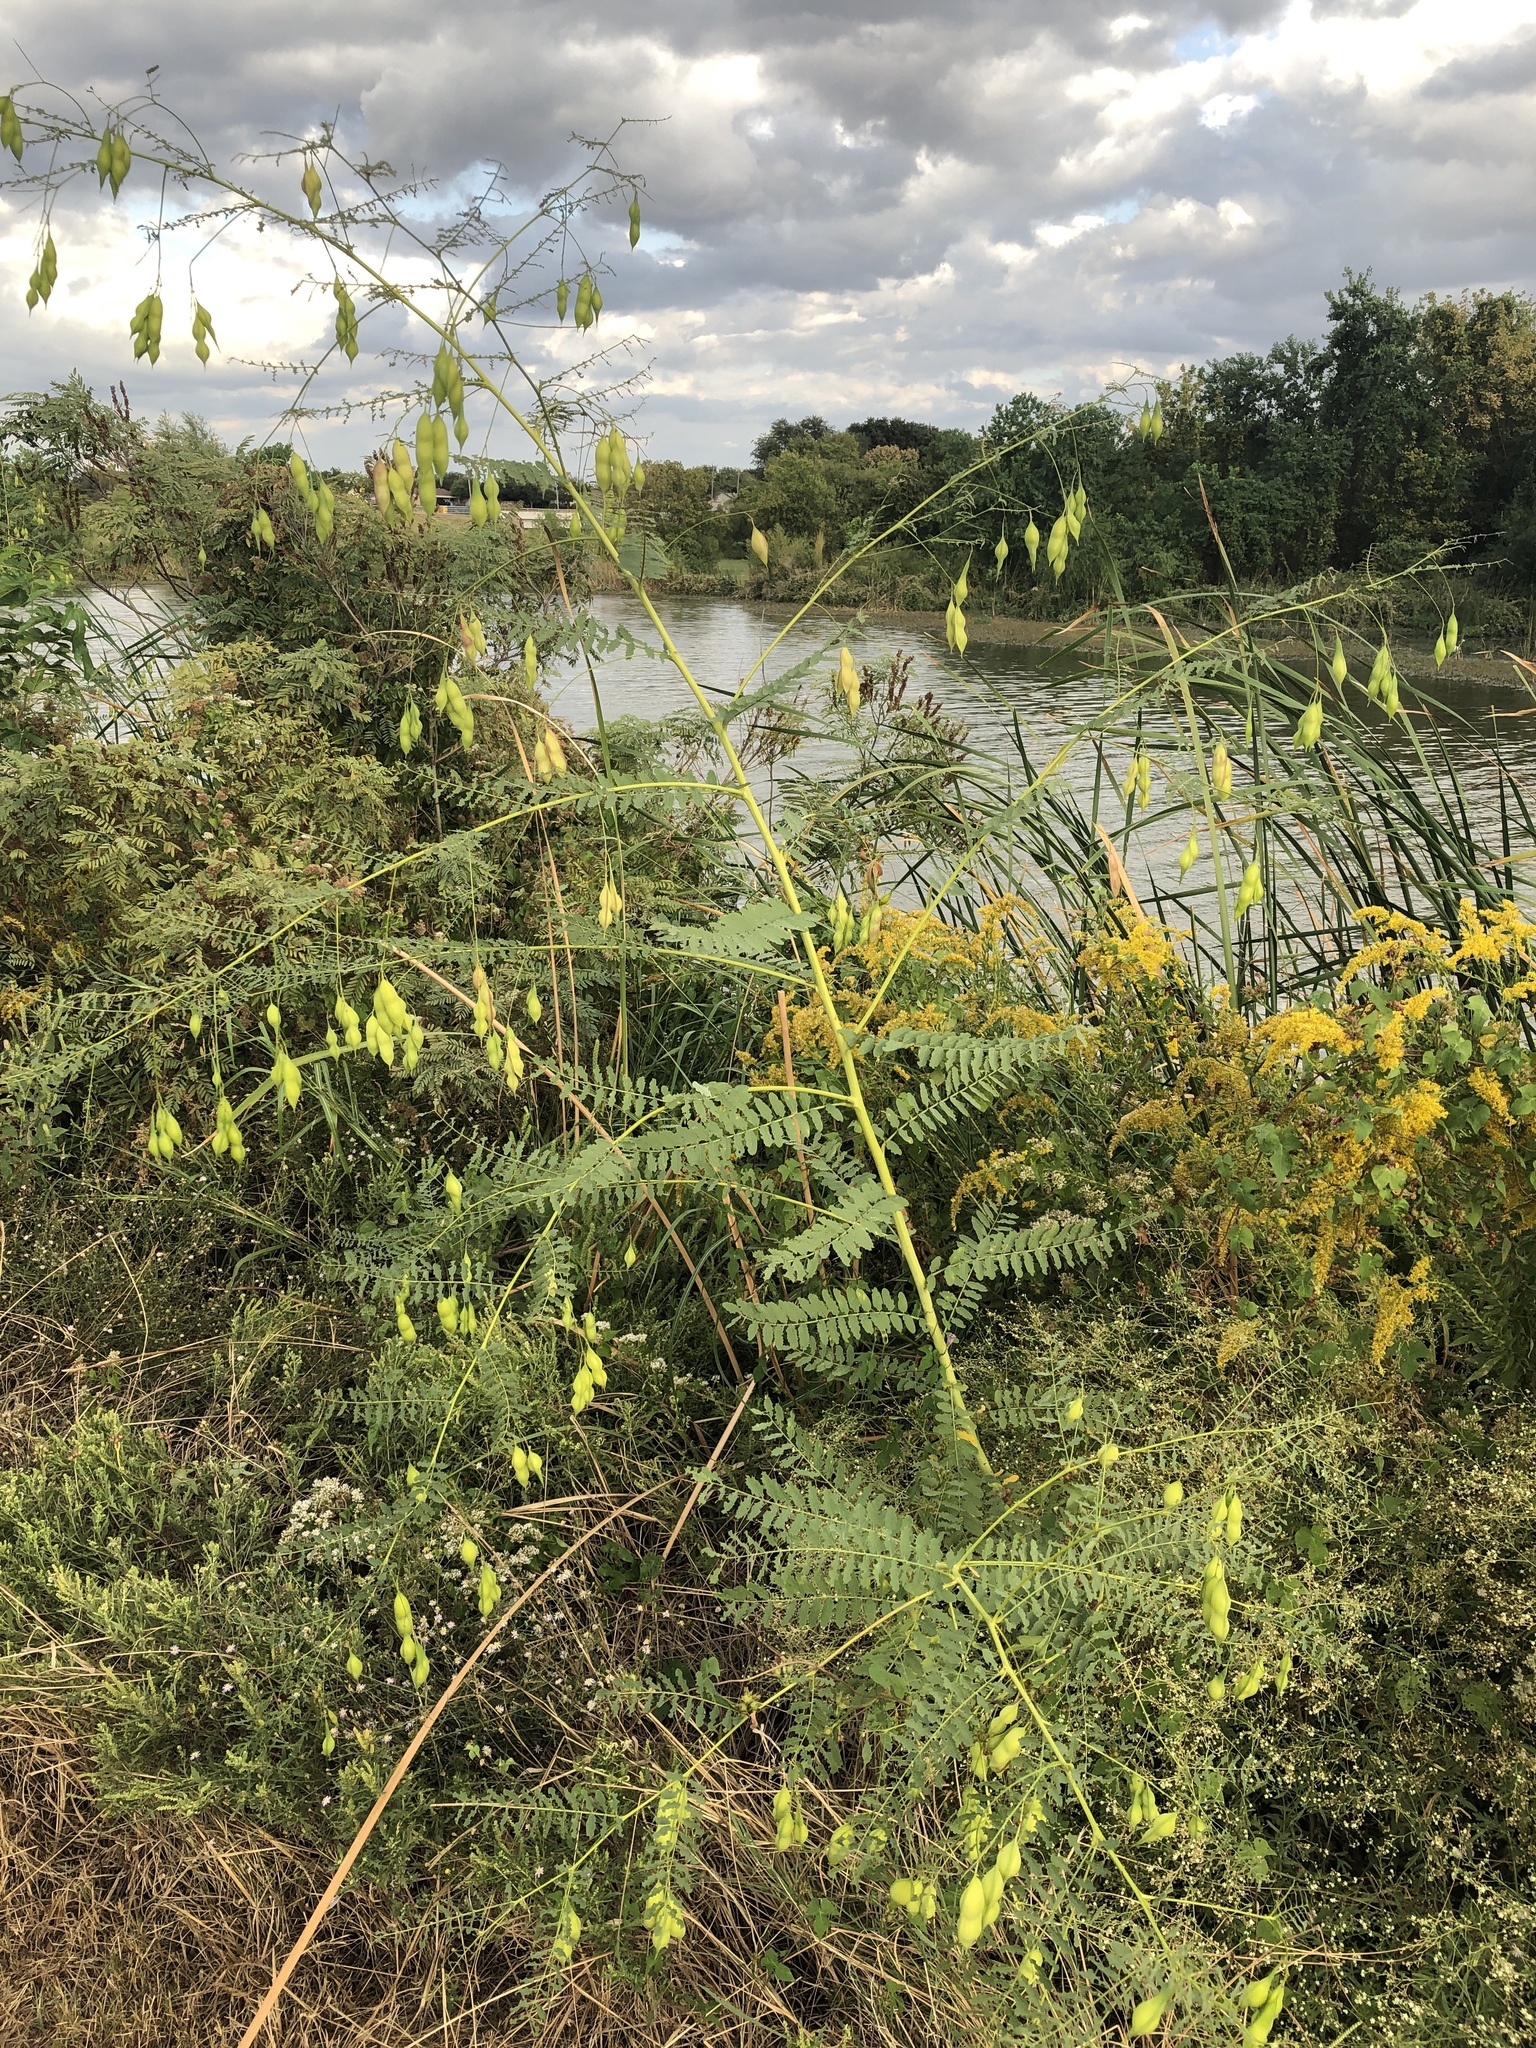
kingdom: Plantae
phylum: Tracheophyta
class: Magnoliopsida
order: Fabales
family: Fabaceae
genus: Sesbania
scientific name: Sesbania vesicaria
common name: Bagpod
